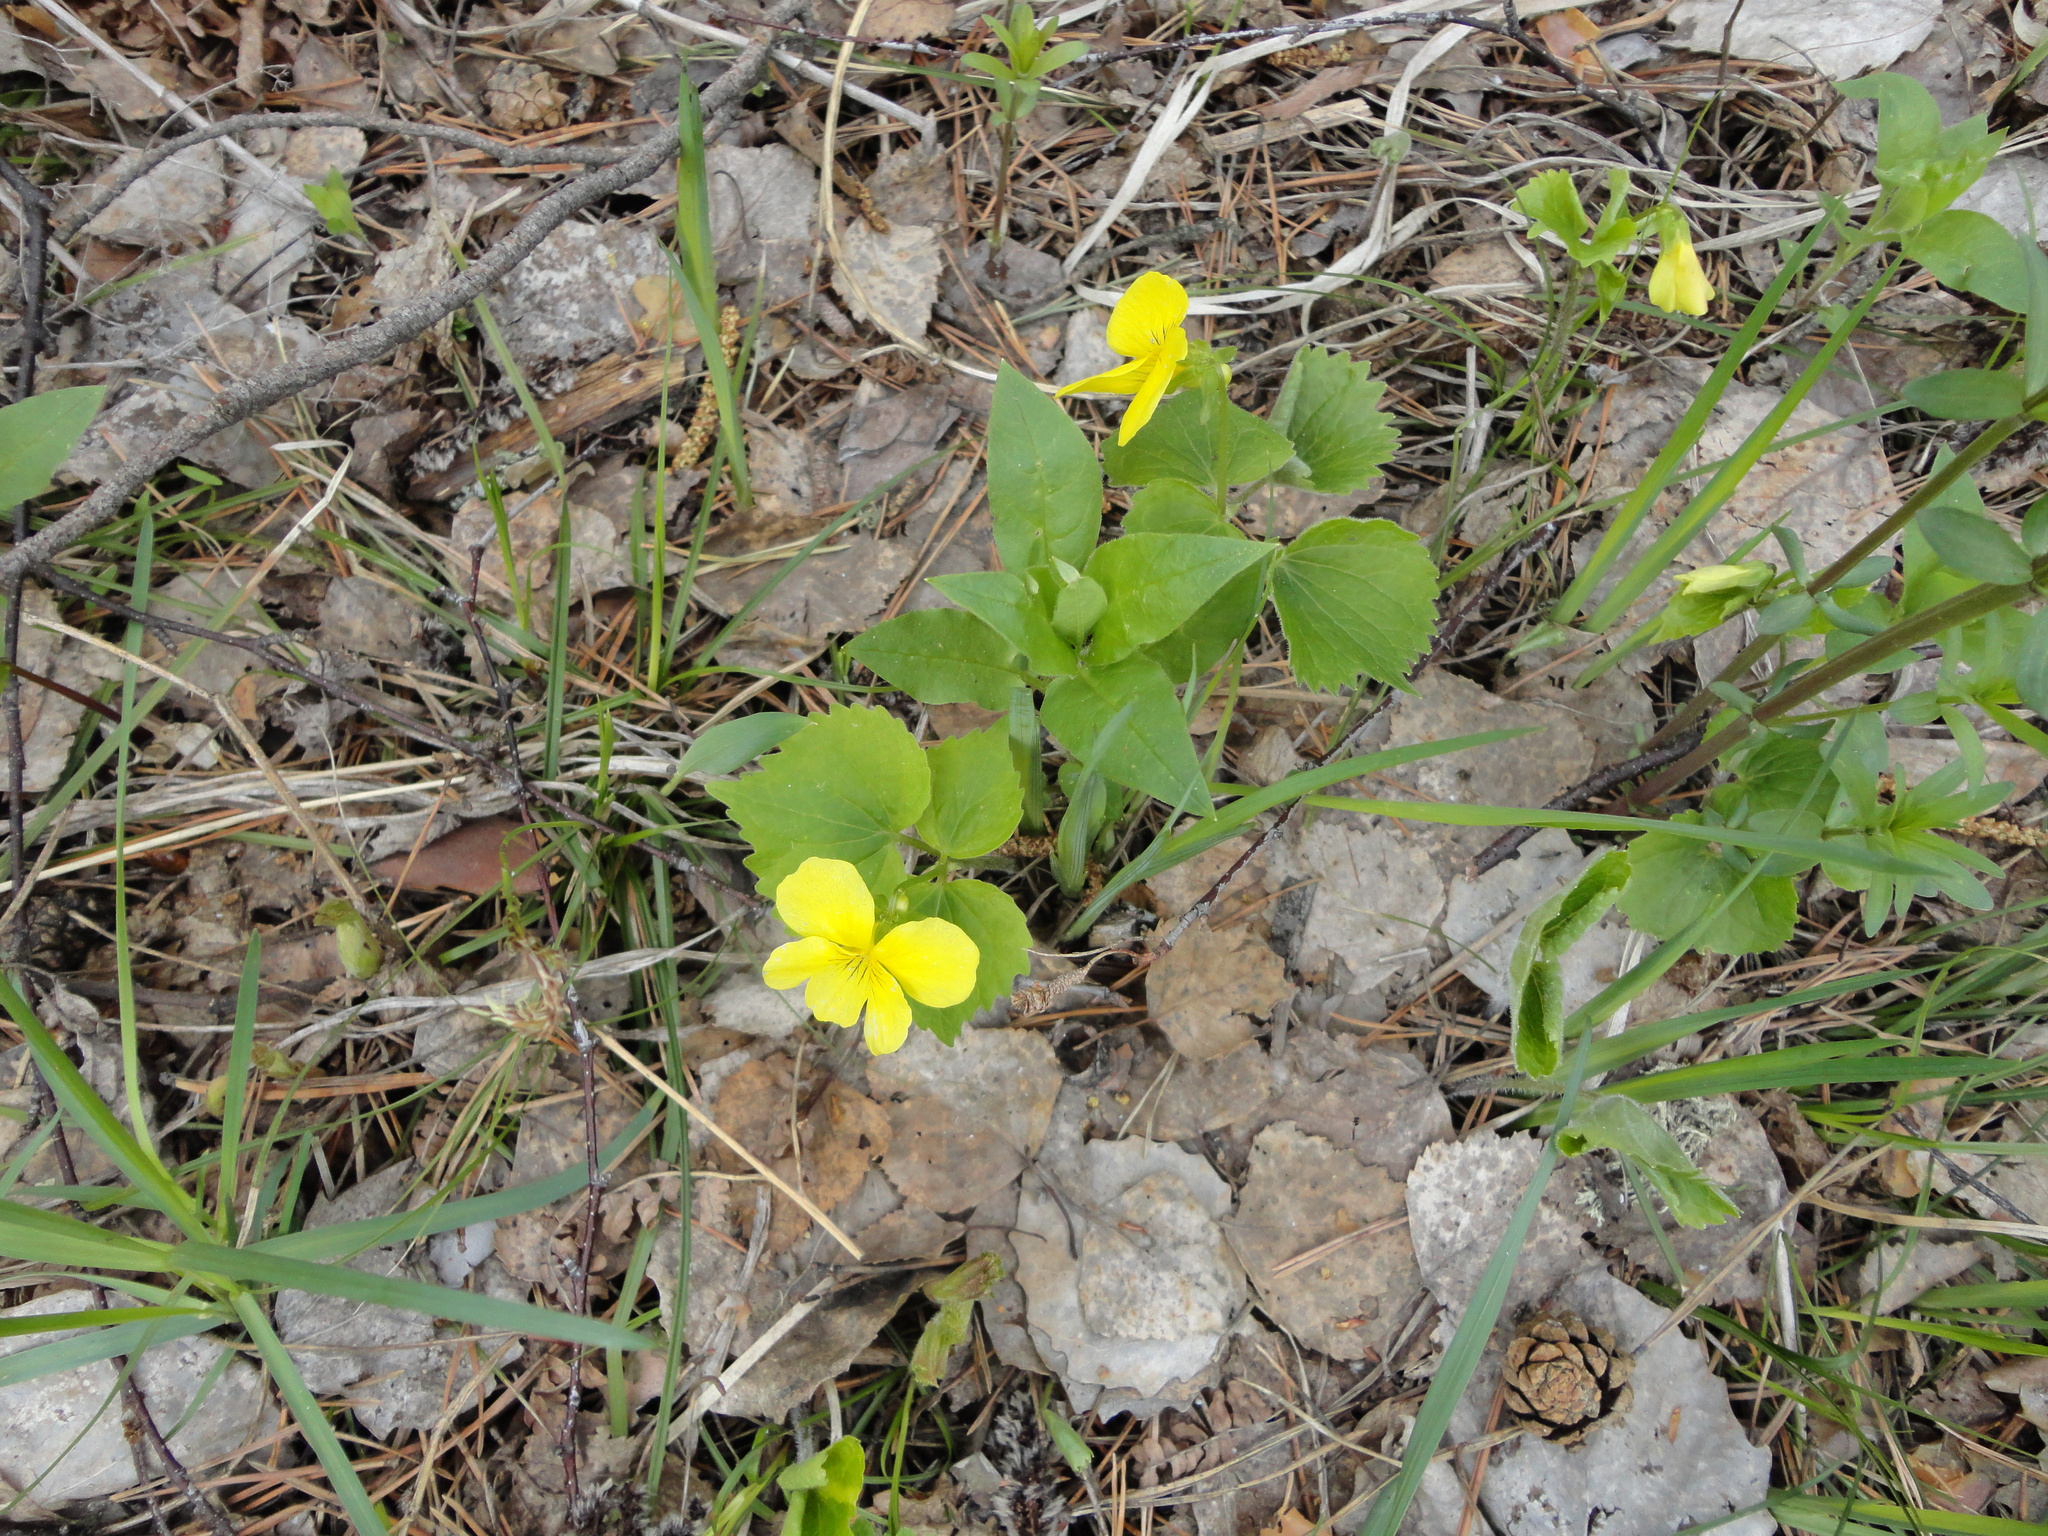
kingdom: Plantae
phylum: Tracheophyta
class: Magnoliopsida
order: Malpighiales
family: Violaceae
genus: Viola
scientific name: Viola uniflora
